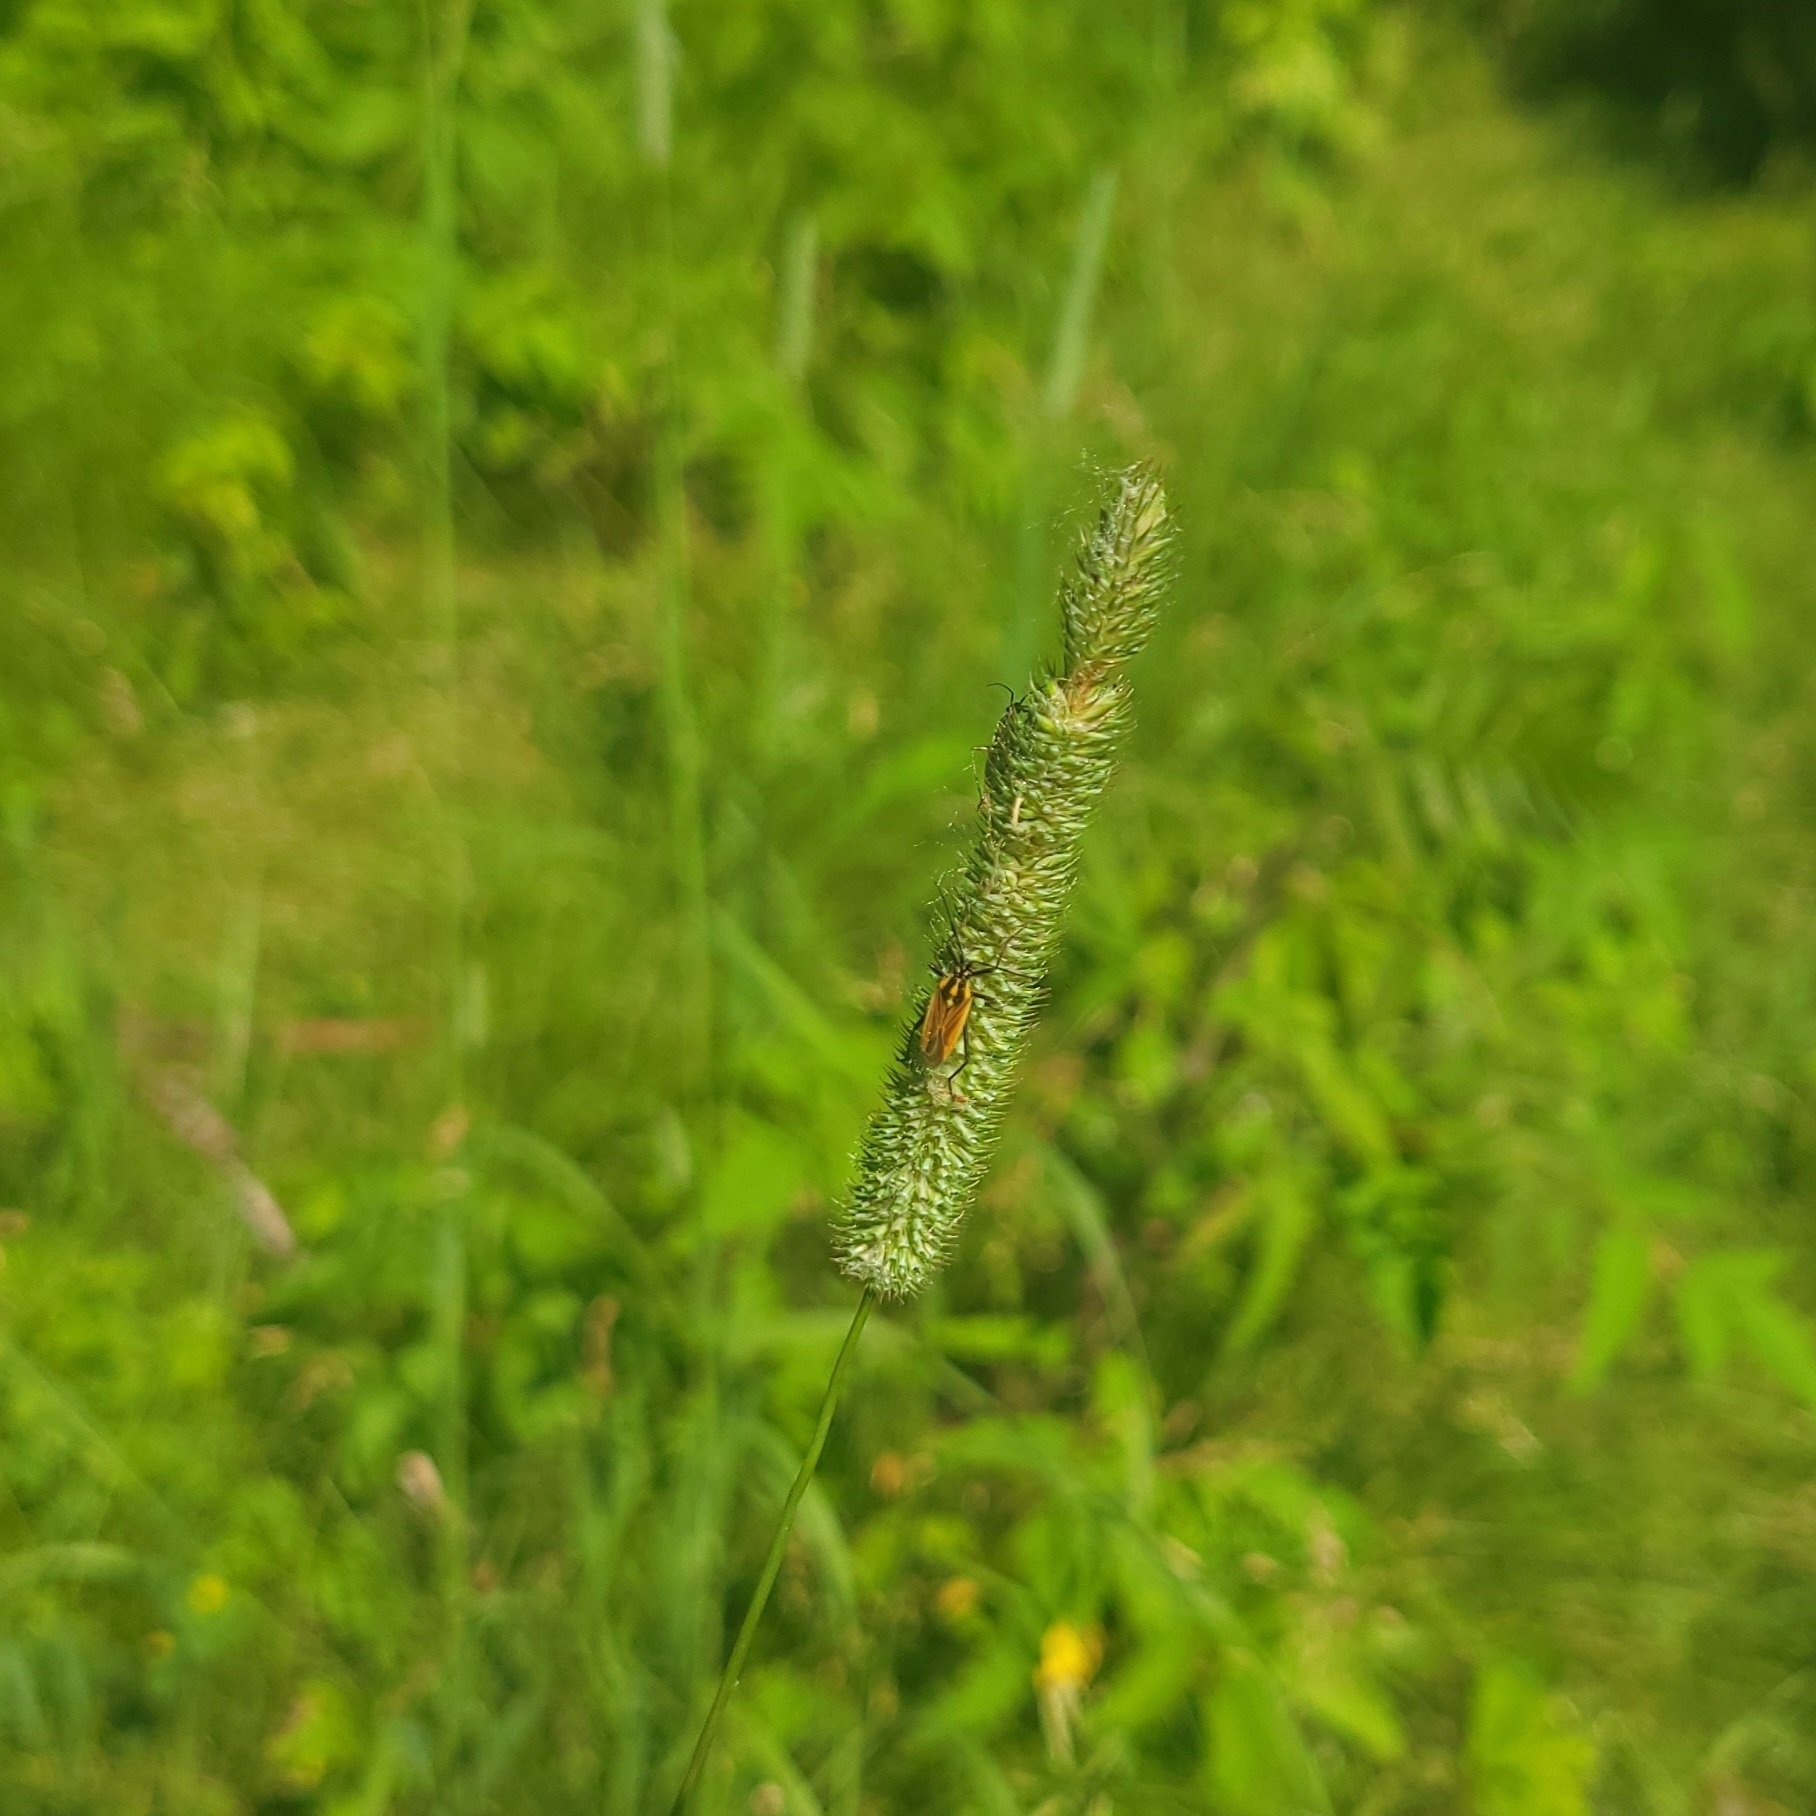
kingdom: Animalia
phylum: Arthropoda
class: Insecta
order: Hemiptera
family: Miridae
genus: Leptopterna
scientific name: Leptopterna dolabrata
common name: Meadow plant bug
